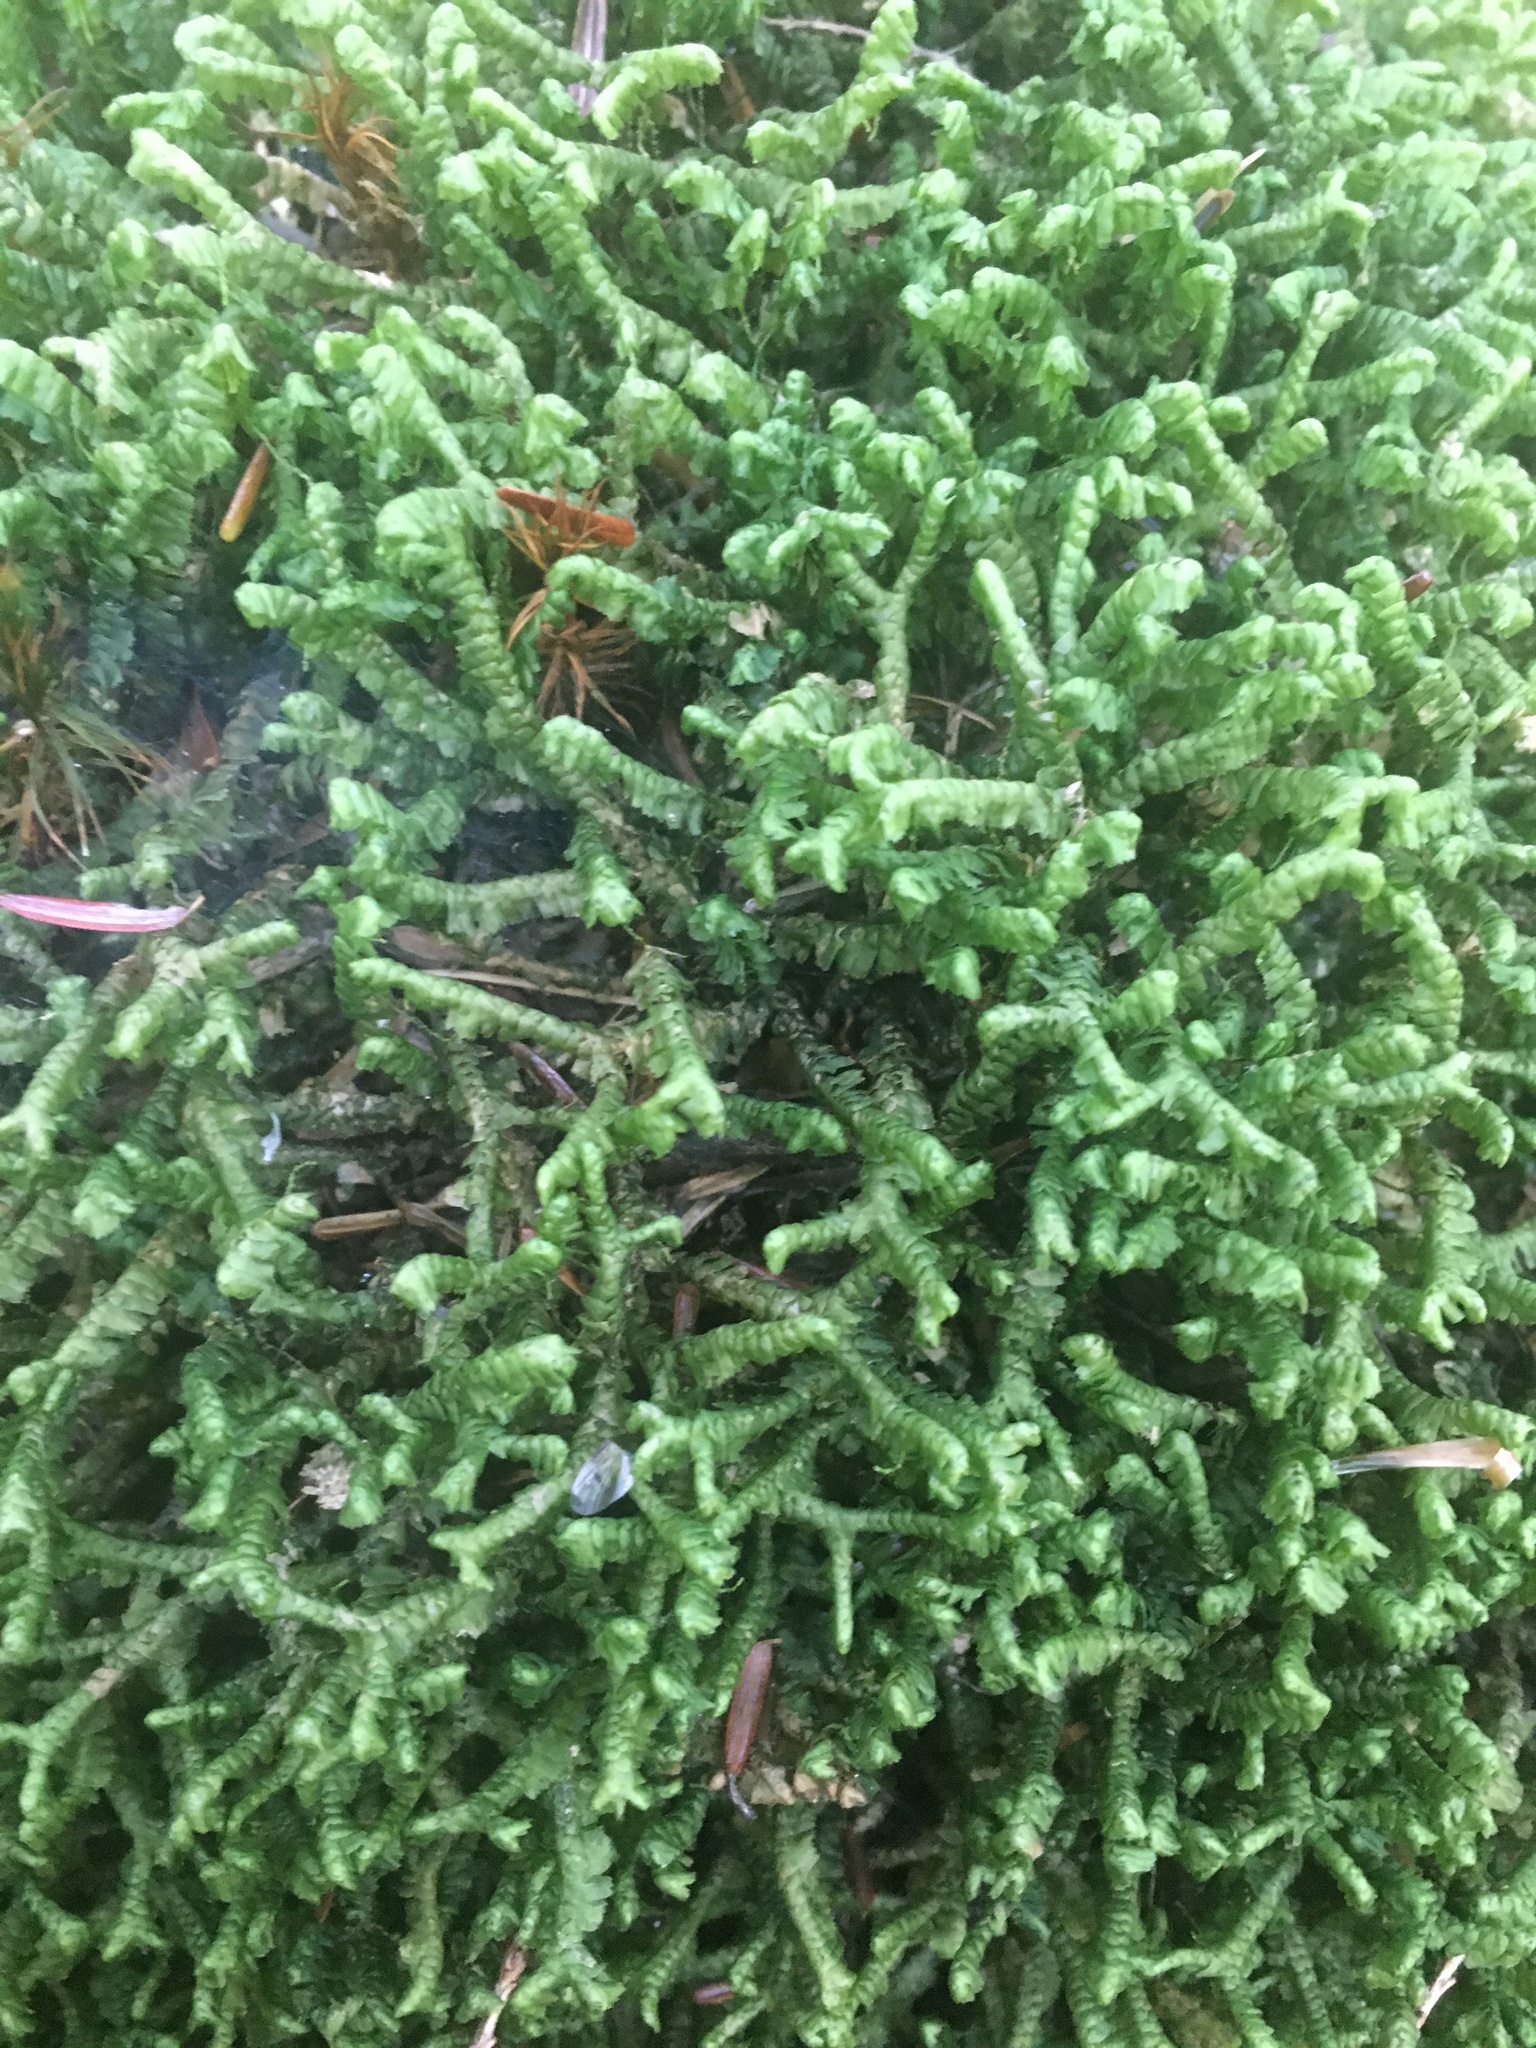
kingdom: Plantae
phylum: Marchantiophyta
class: Jungermanniopsida
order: Jungermanniales
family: Lepidoziaceae
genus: Bazzania
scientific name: Bazzania trilobata
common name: Three-lobed whipwort
